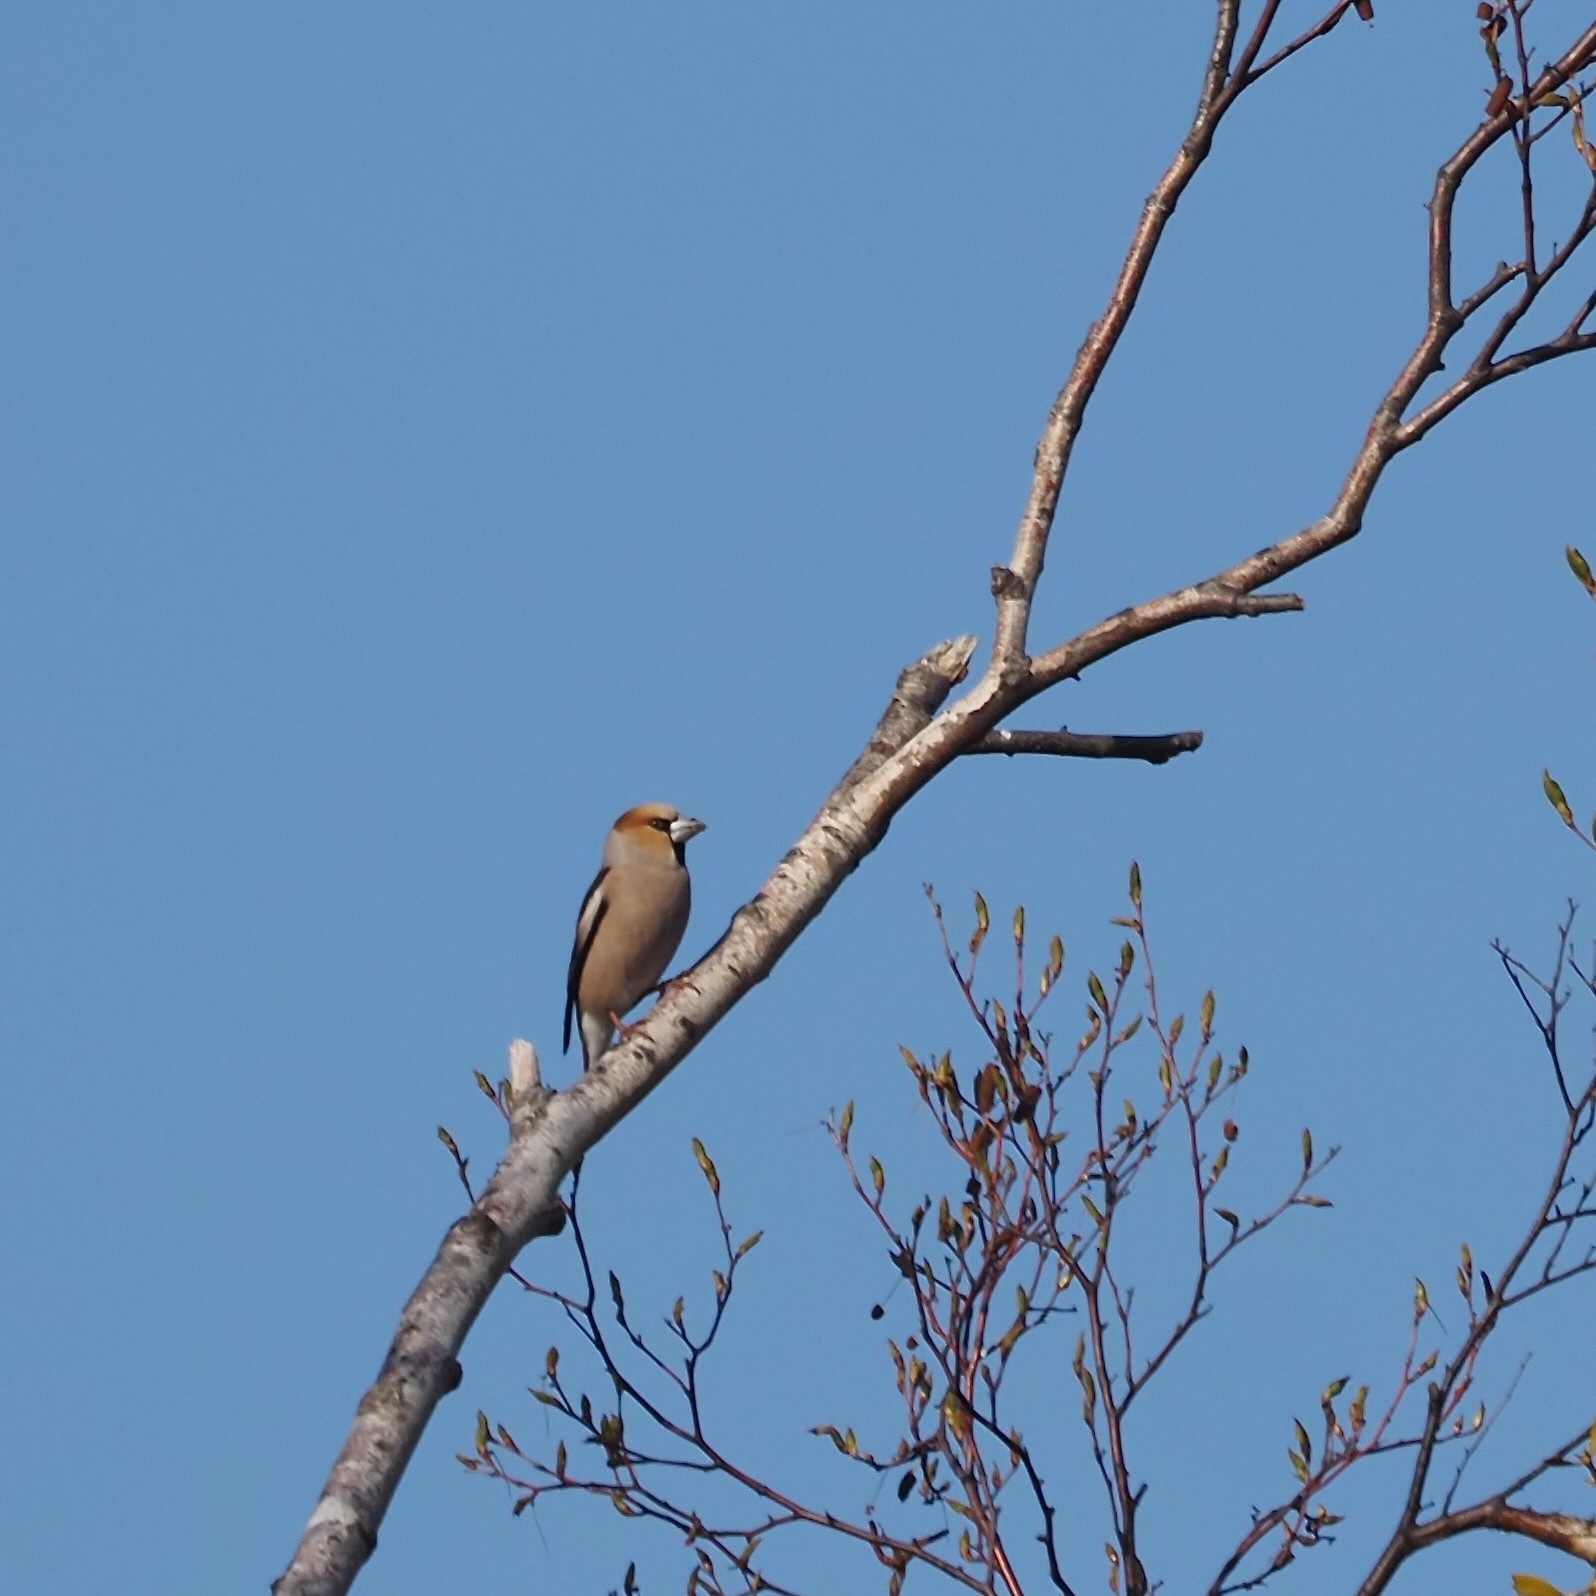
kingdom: Animalia
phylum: Chordata
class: Aves
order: Passeriformes
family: Fringillidae
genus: Coccothraustes
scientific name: Coccothraustes coccothraustes
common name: Hawfinch
